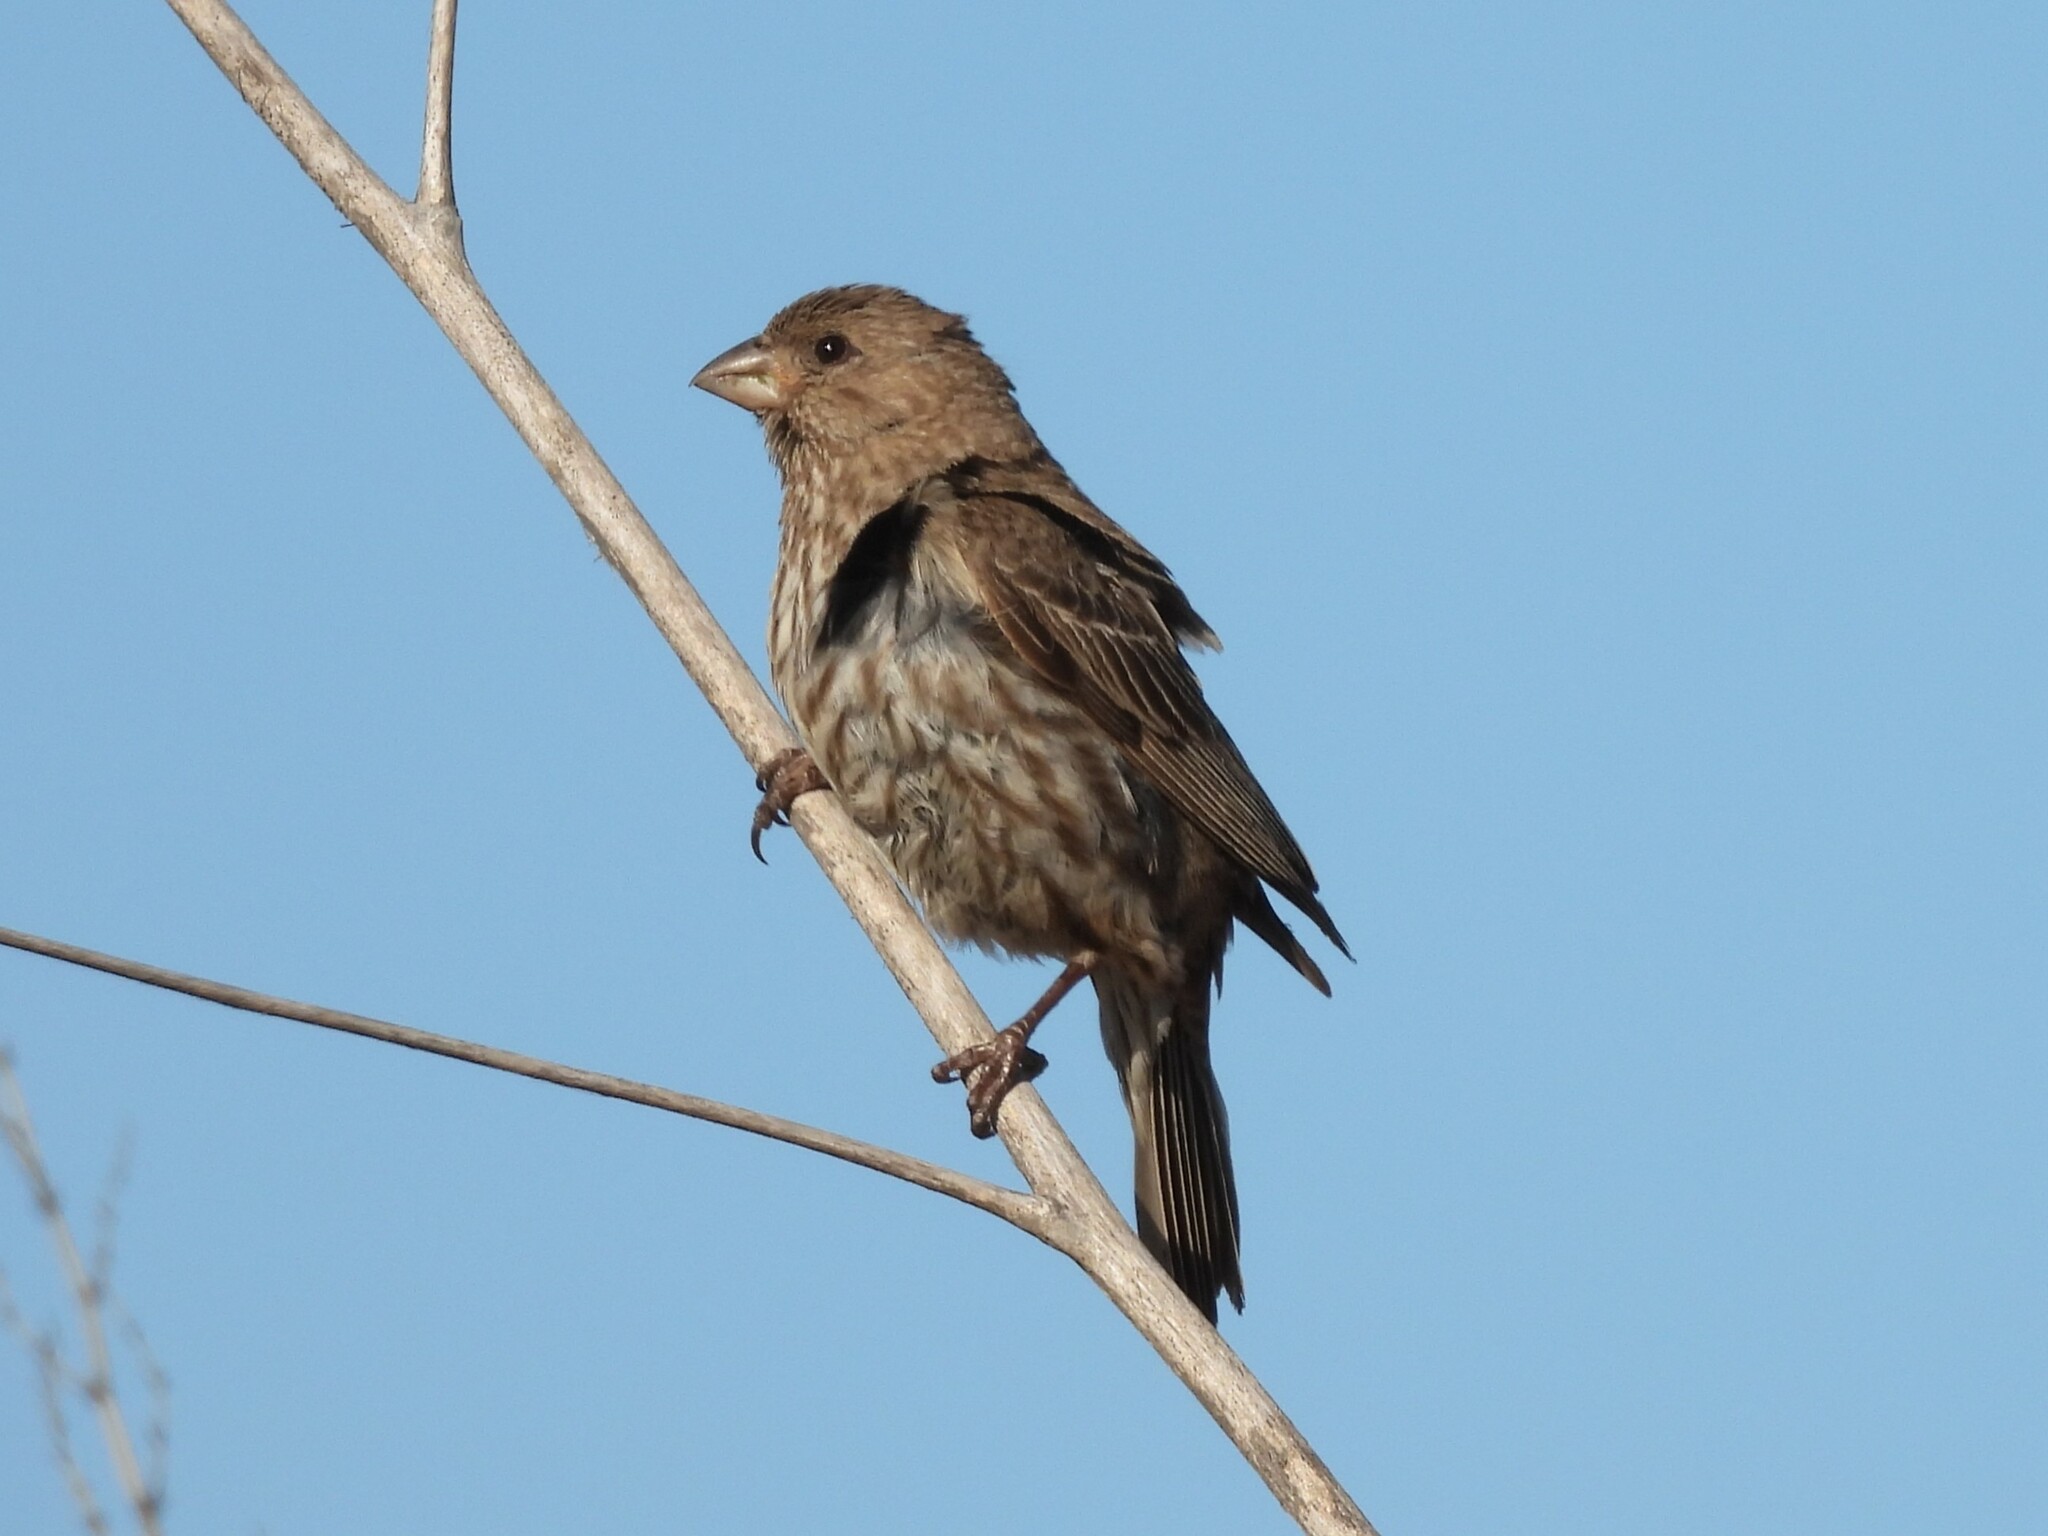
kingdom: Animalia
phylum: Chordata
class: Aves
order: Passeriformes
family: Fringillidae
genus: Haemorhous
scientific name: Haemorhous mexicanus
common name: House finch
